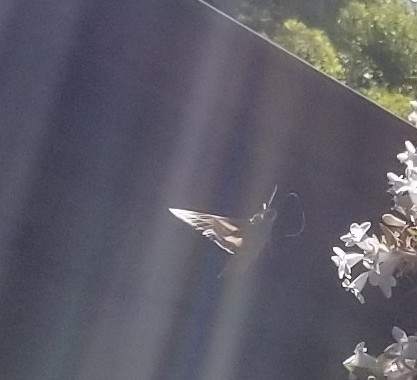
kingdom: Animalia
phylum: Arthropoda
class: Insecta
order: Lepidoptera
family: Sphingidae
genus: Hyles
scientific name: Hyles lineata
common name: White-lined sphinx
